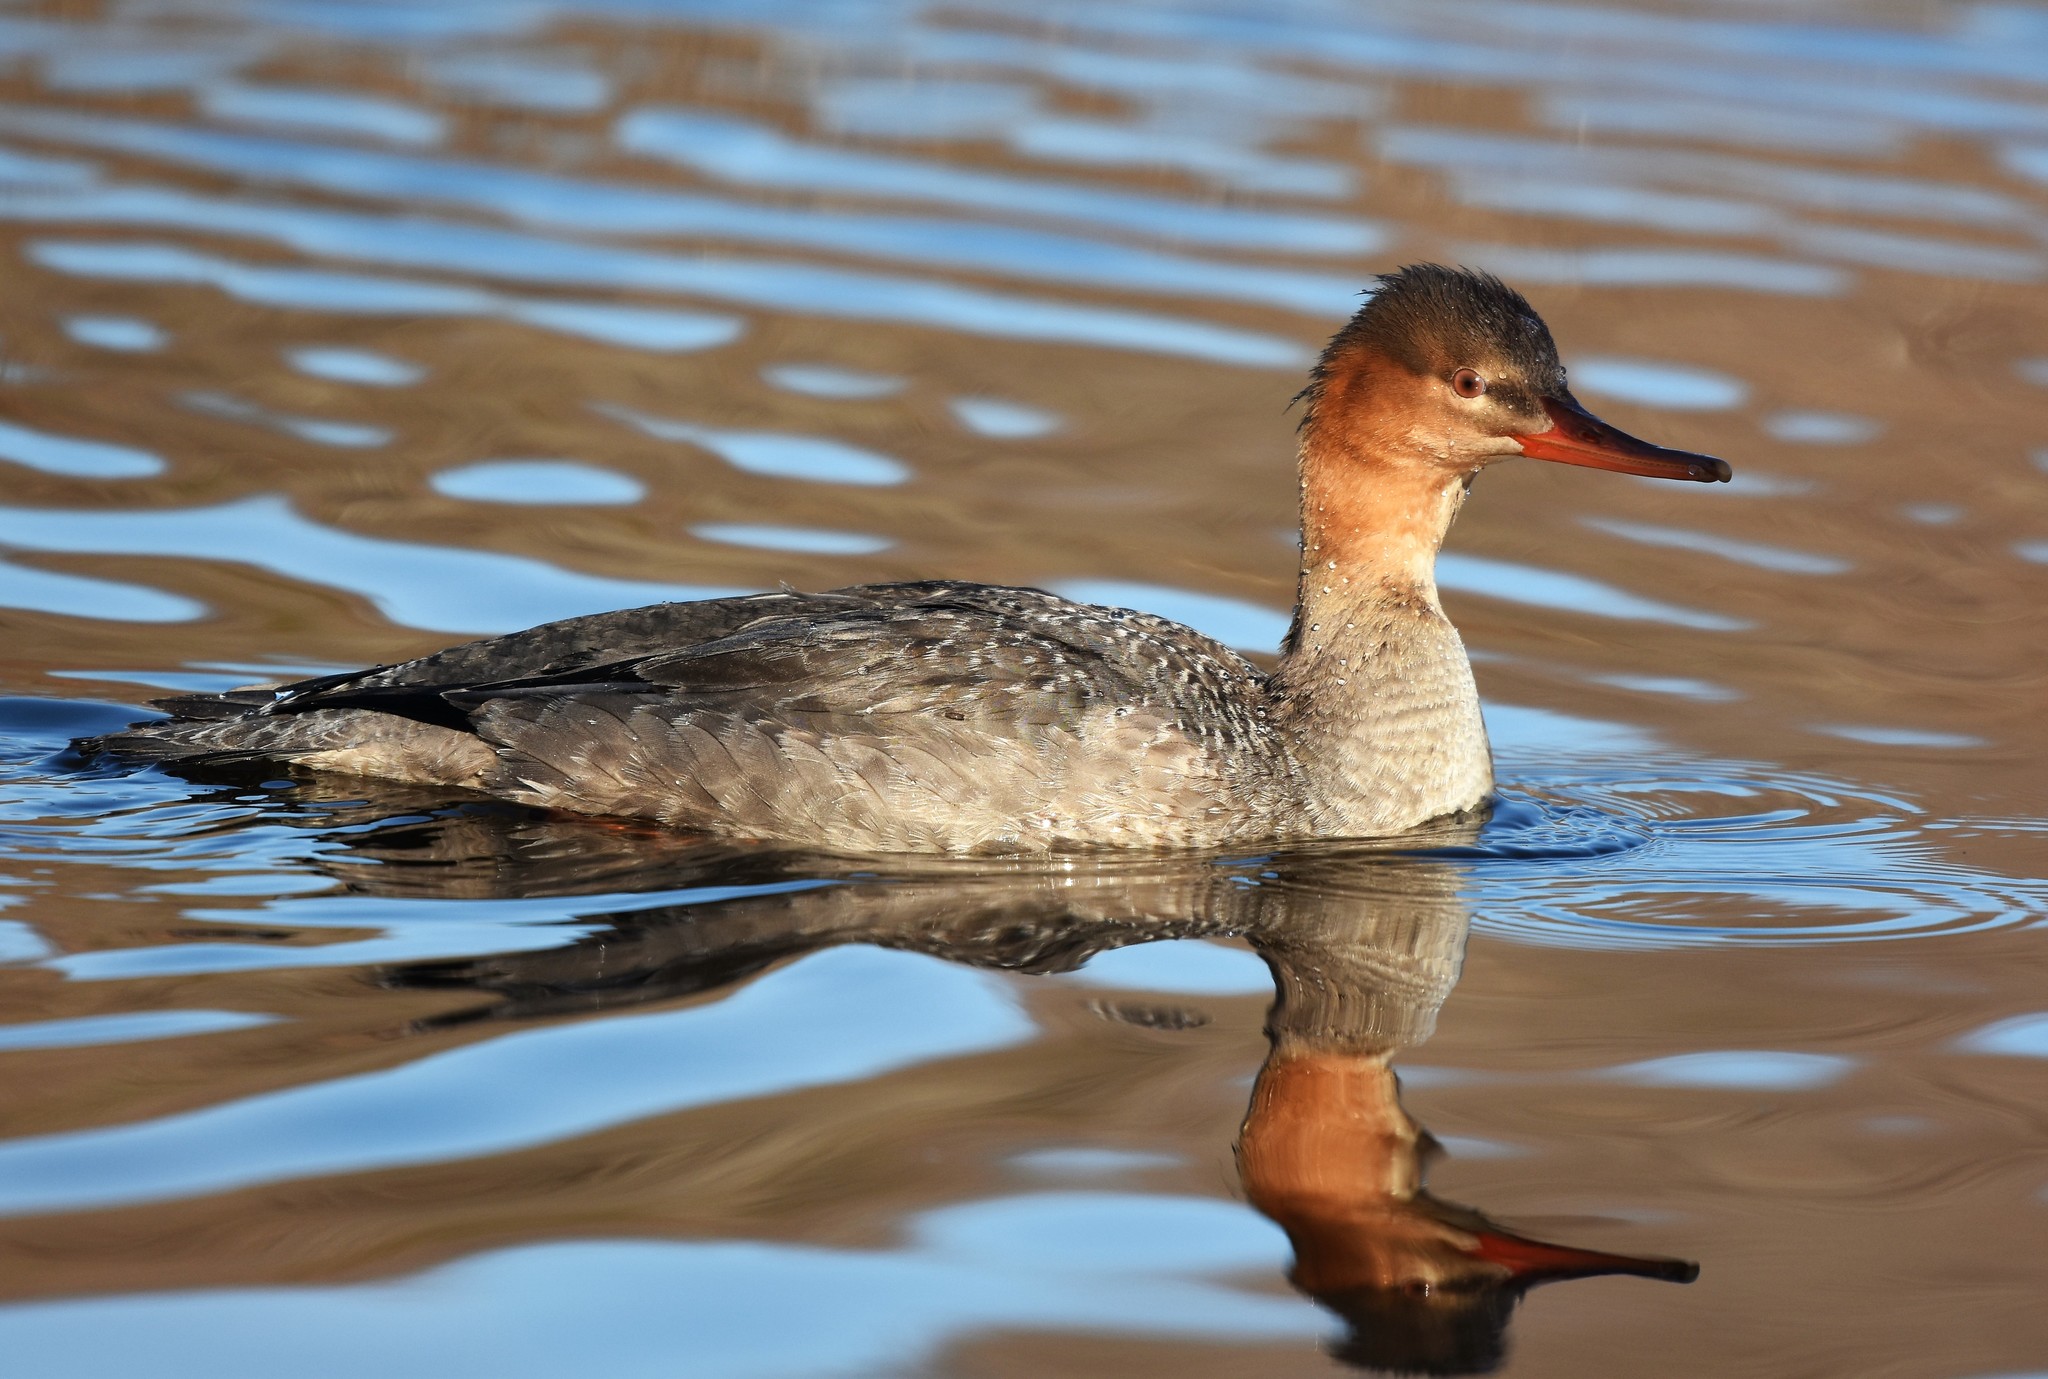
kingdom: Animalia
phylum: Chordata
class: Aves
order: Anseriformes
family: Anatidae
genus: Mergus
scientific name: Mergus serrator
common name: Red-breasted merganser
